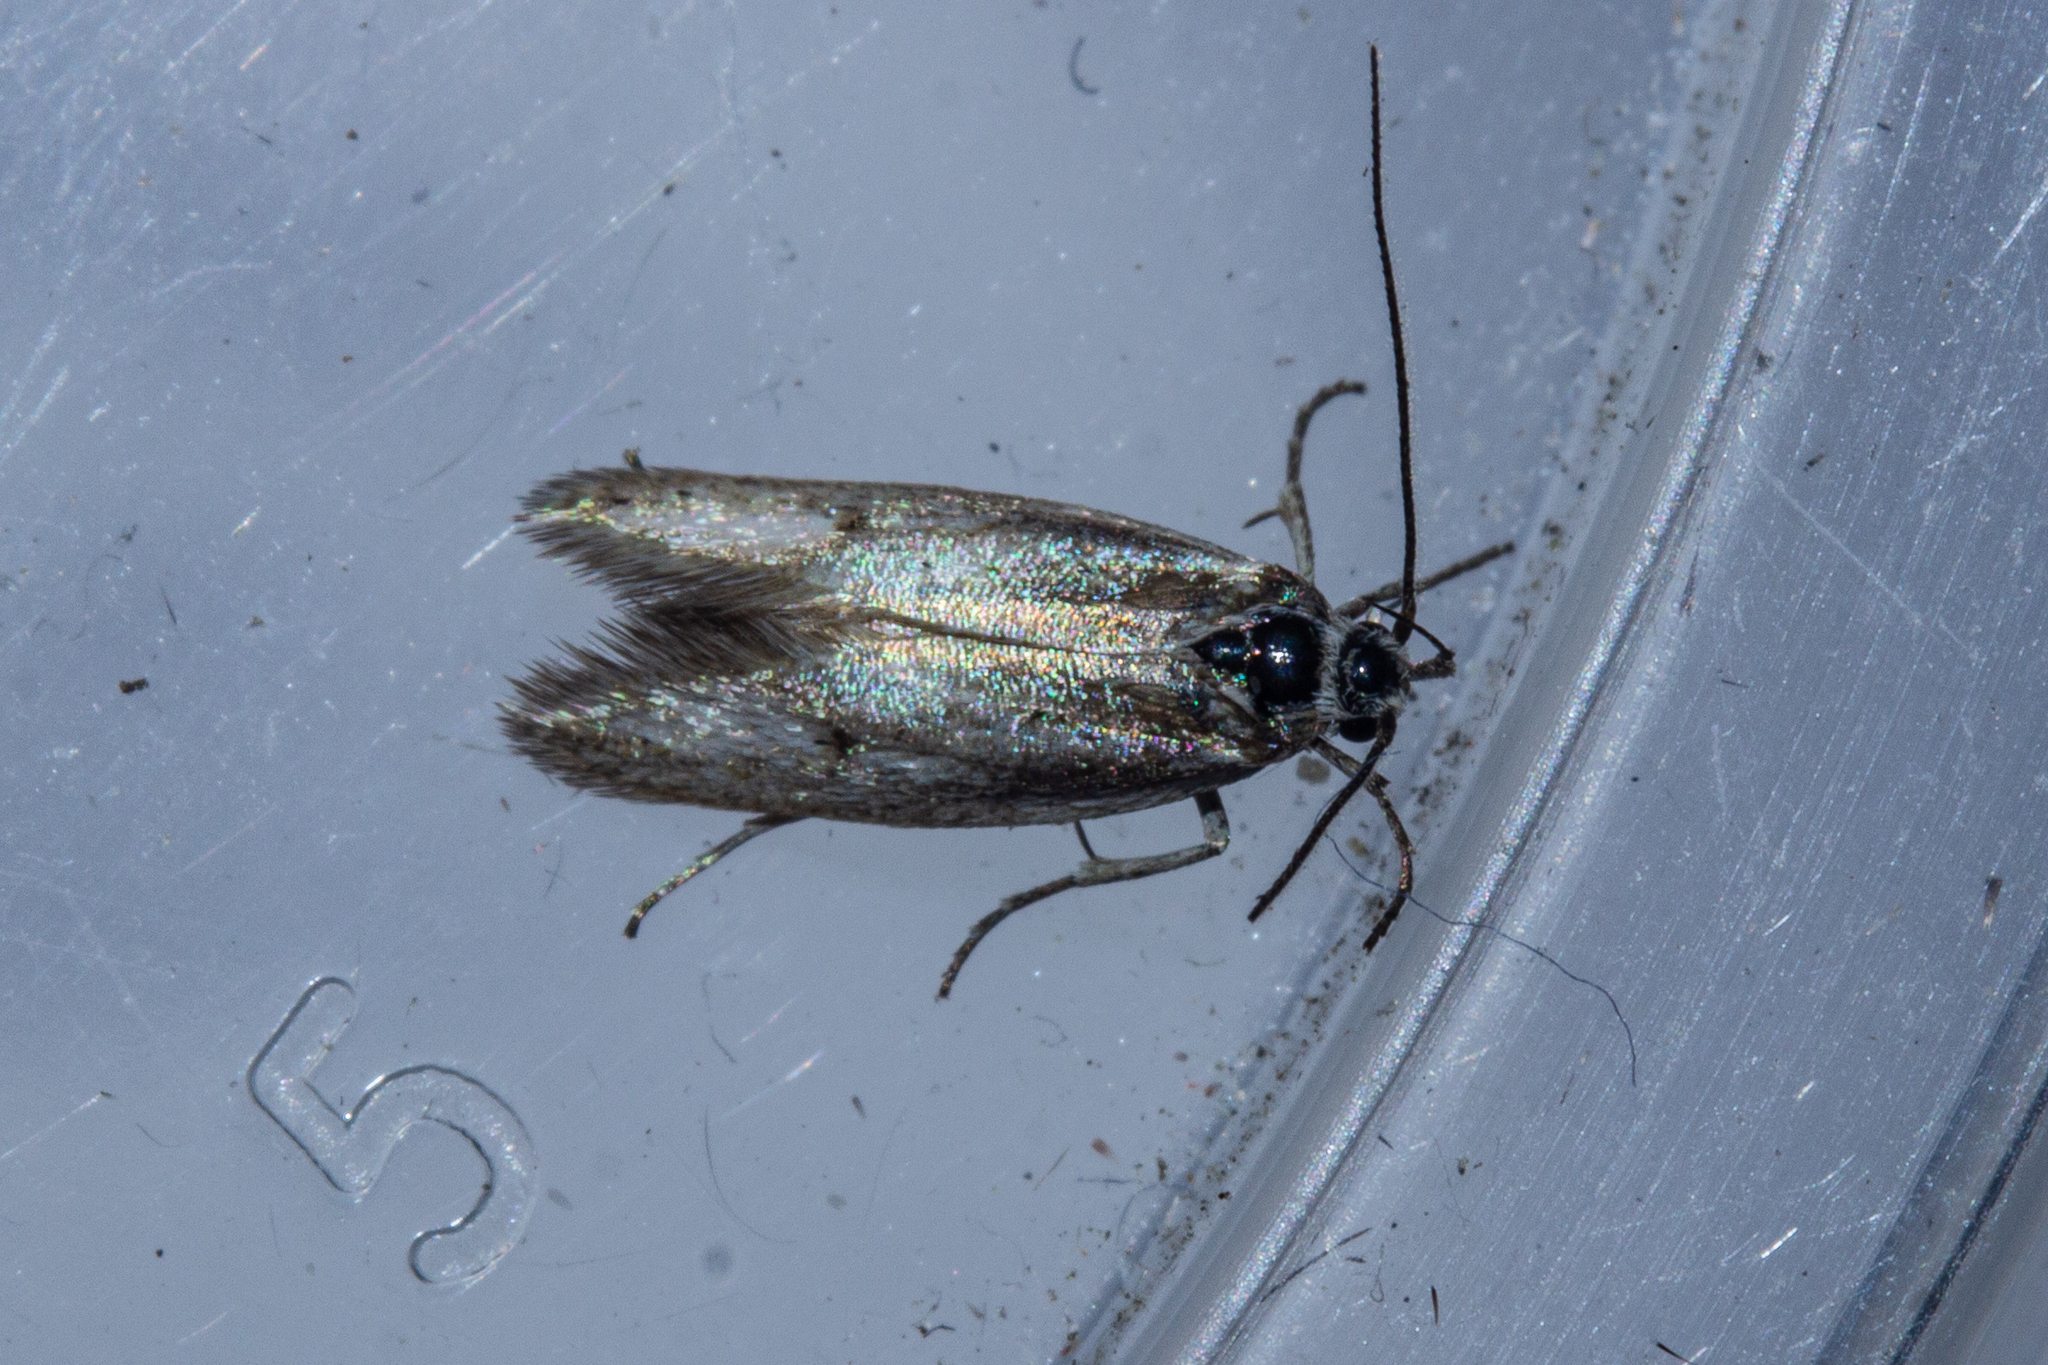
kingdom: Animalia
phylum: Arthropoda
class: Insecta
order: Lepidoptera
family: Oecophoridae
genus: Prepalla
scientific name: Prepalla
